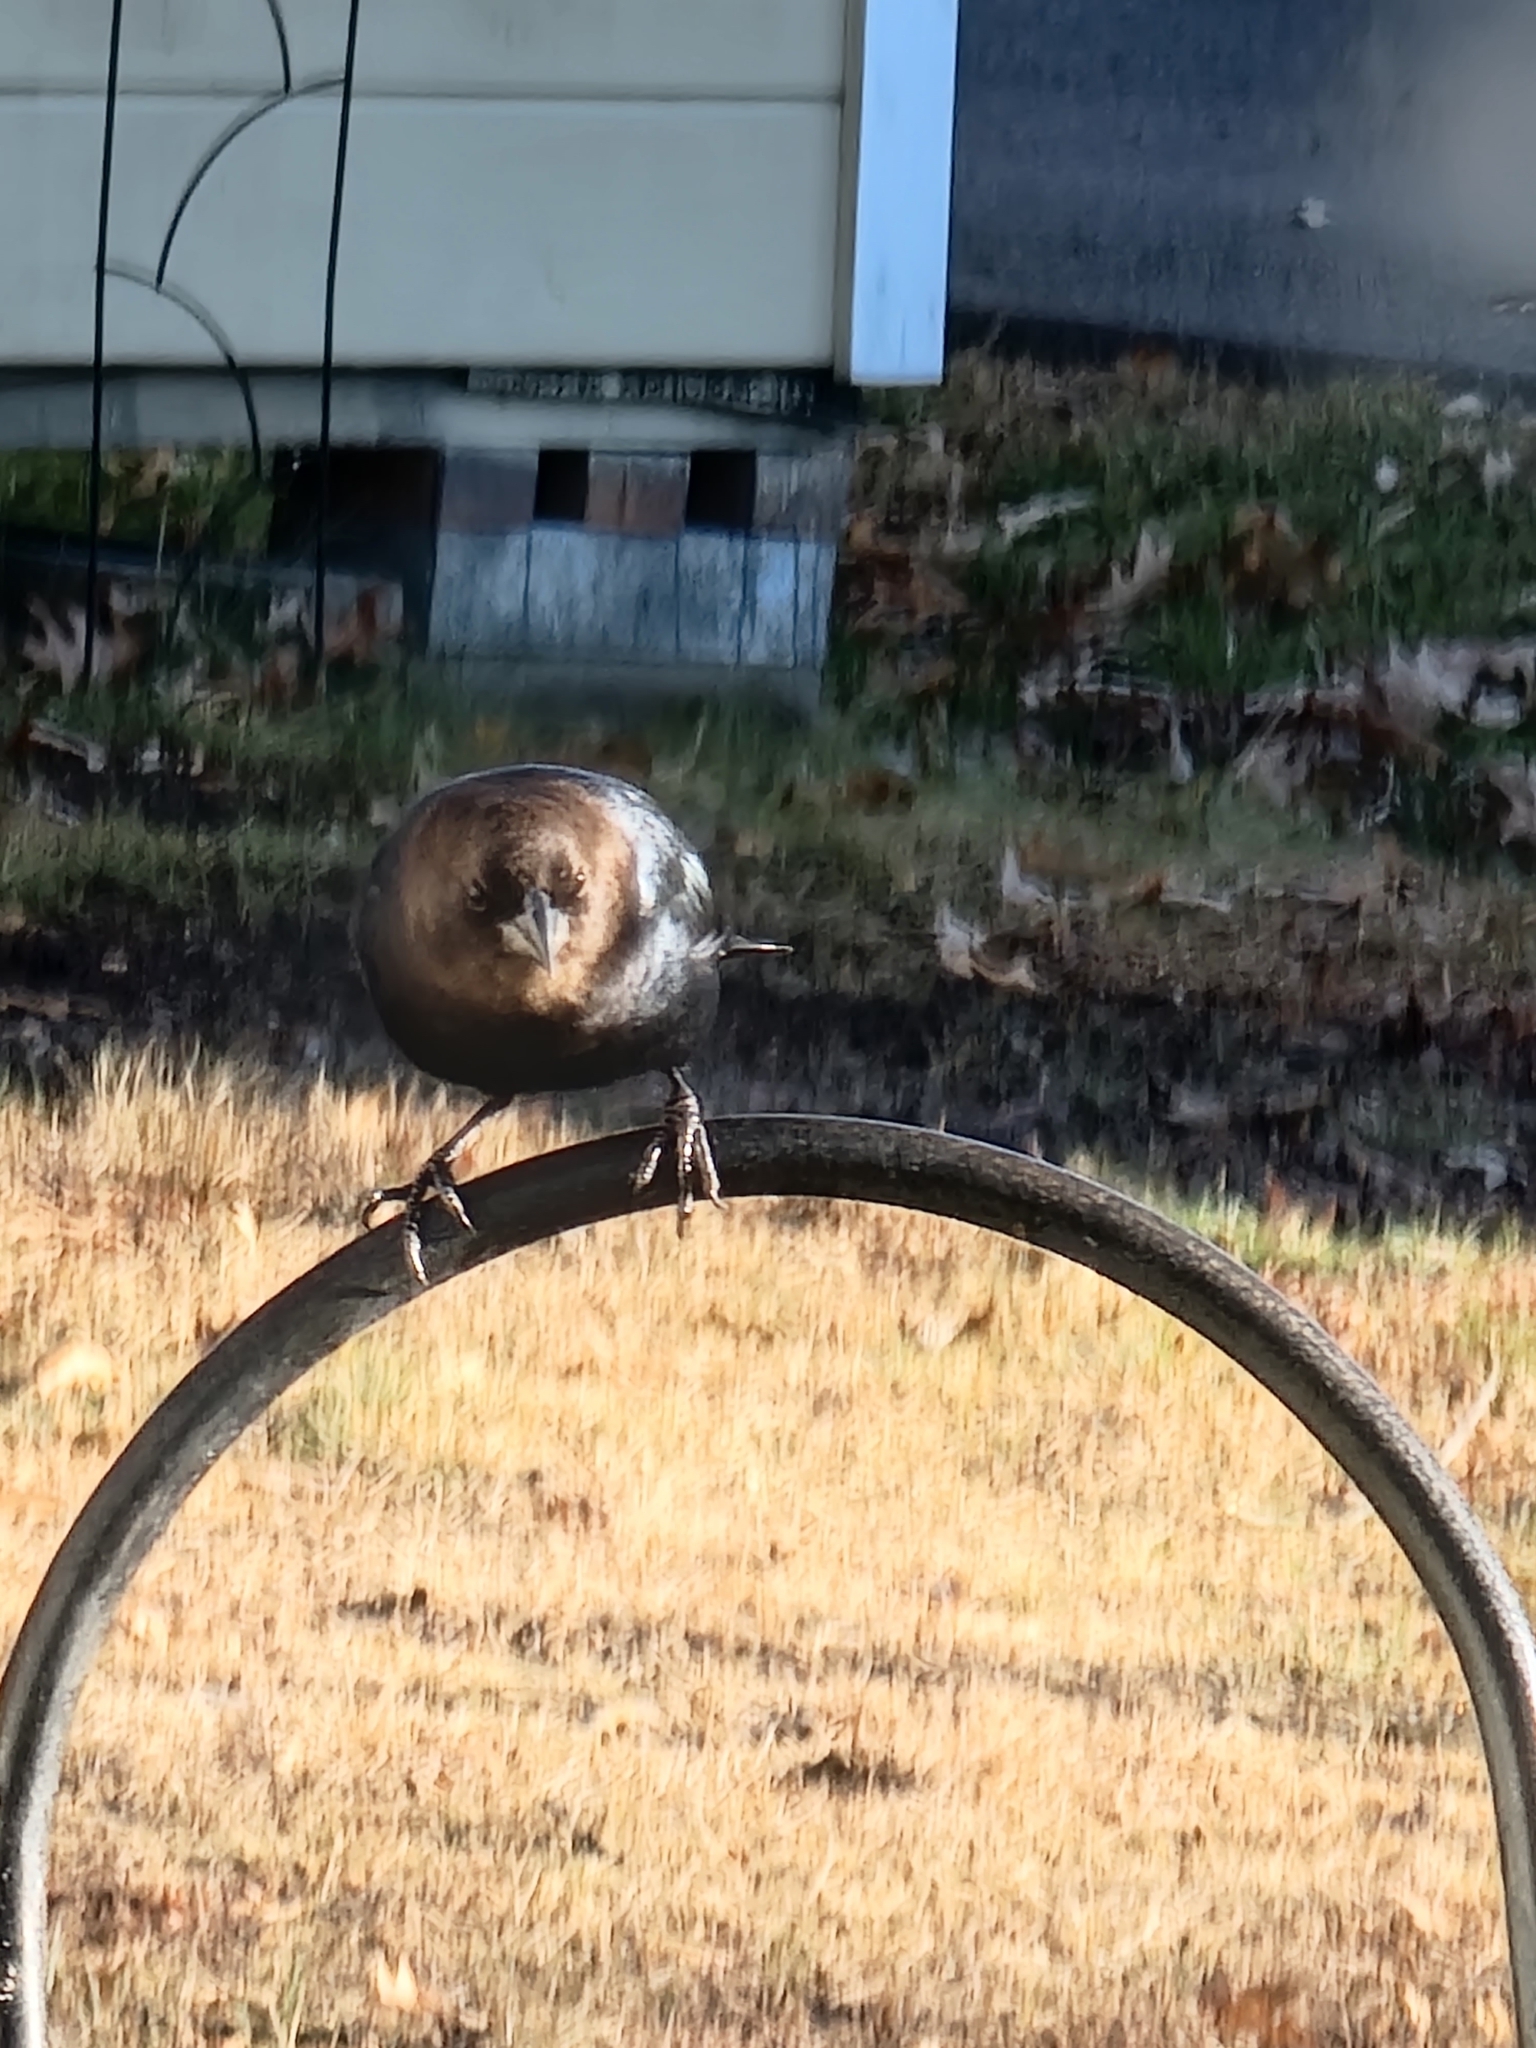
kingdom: Animalia
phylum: Chordata
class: Aves
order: Passeriformes
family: Icteridae
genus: Molothrus
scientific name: Molothrus ater
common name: Brown-headed cowbird
